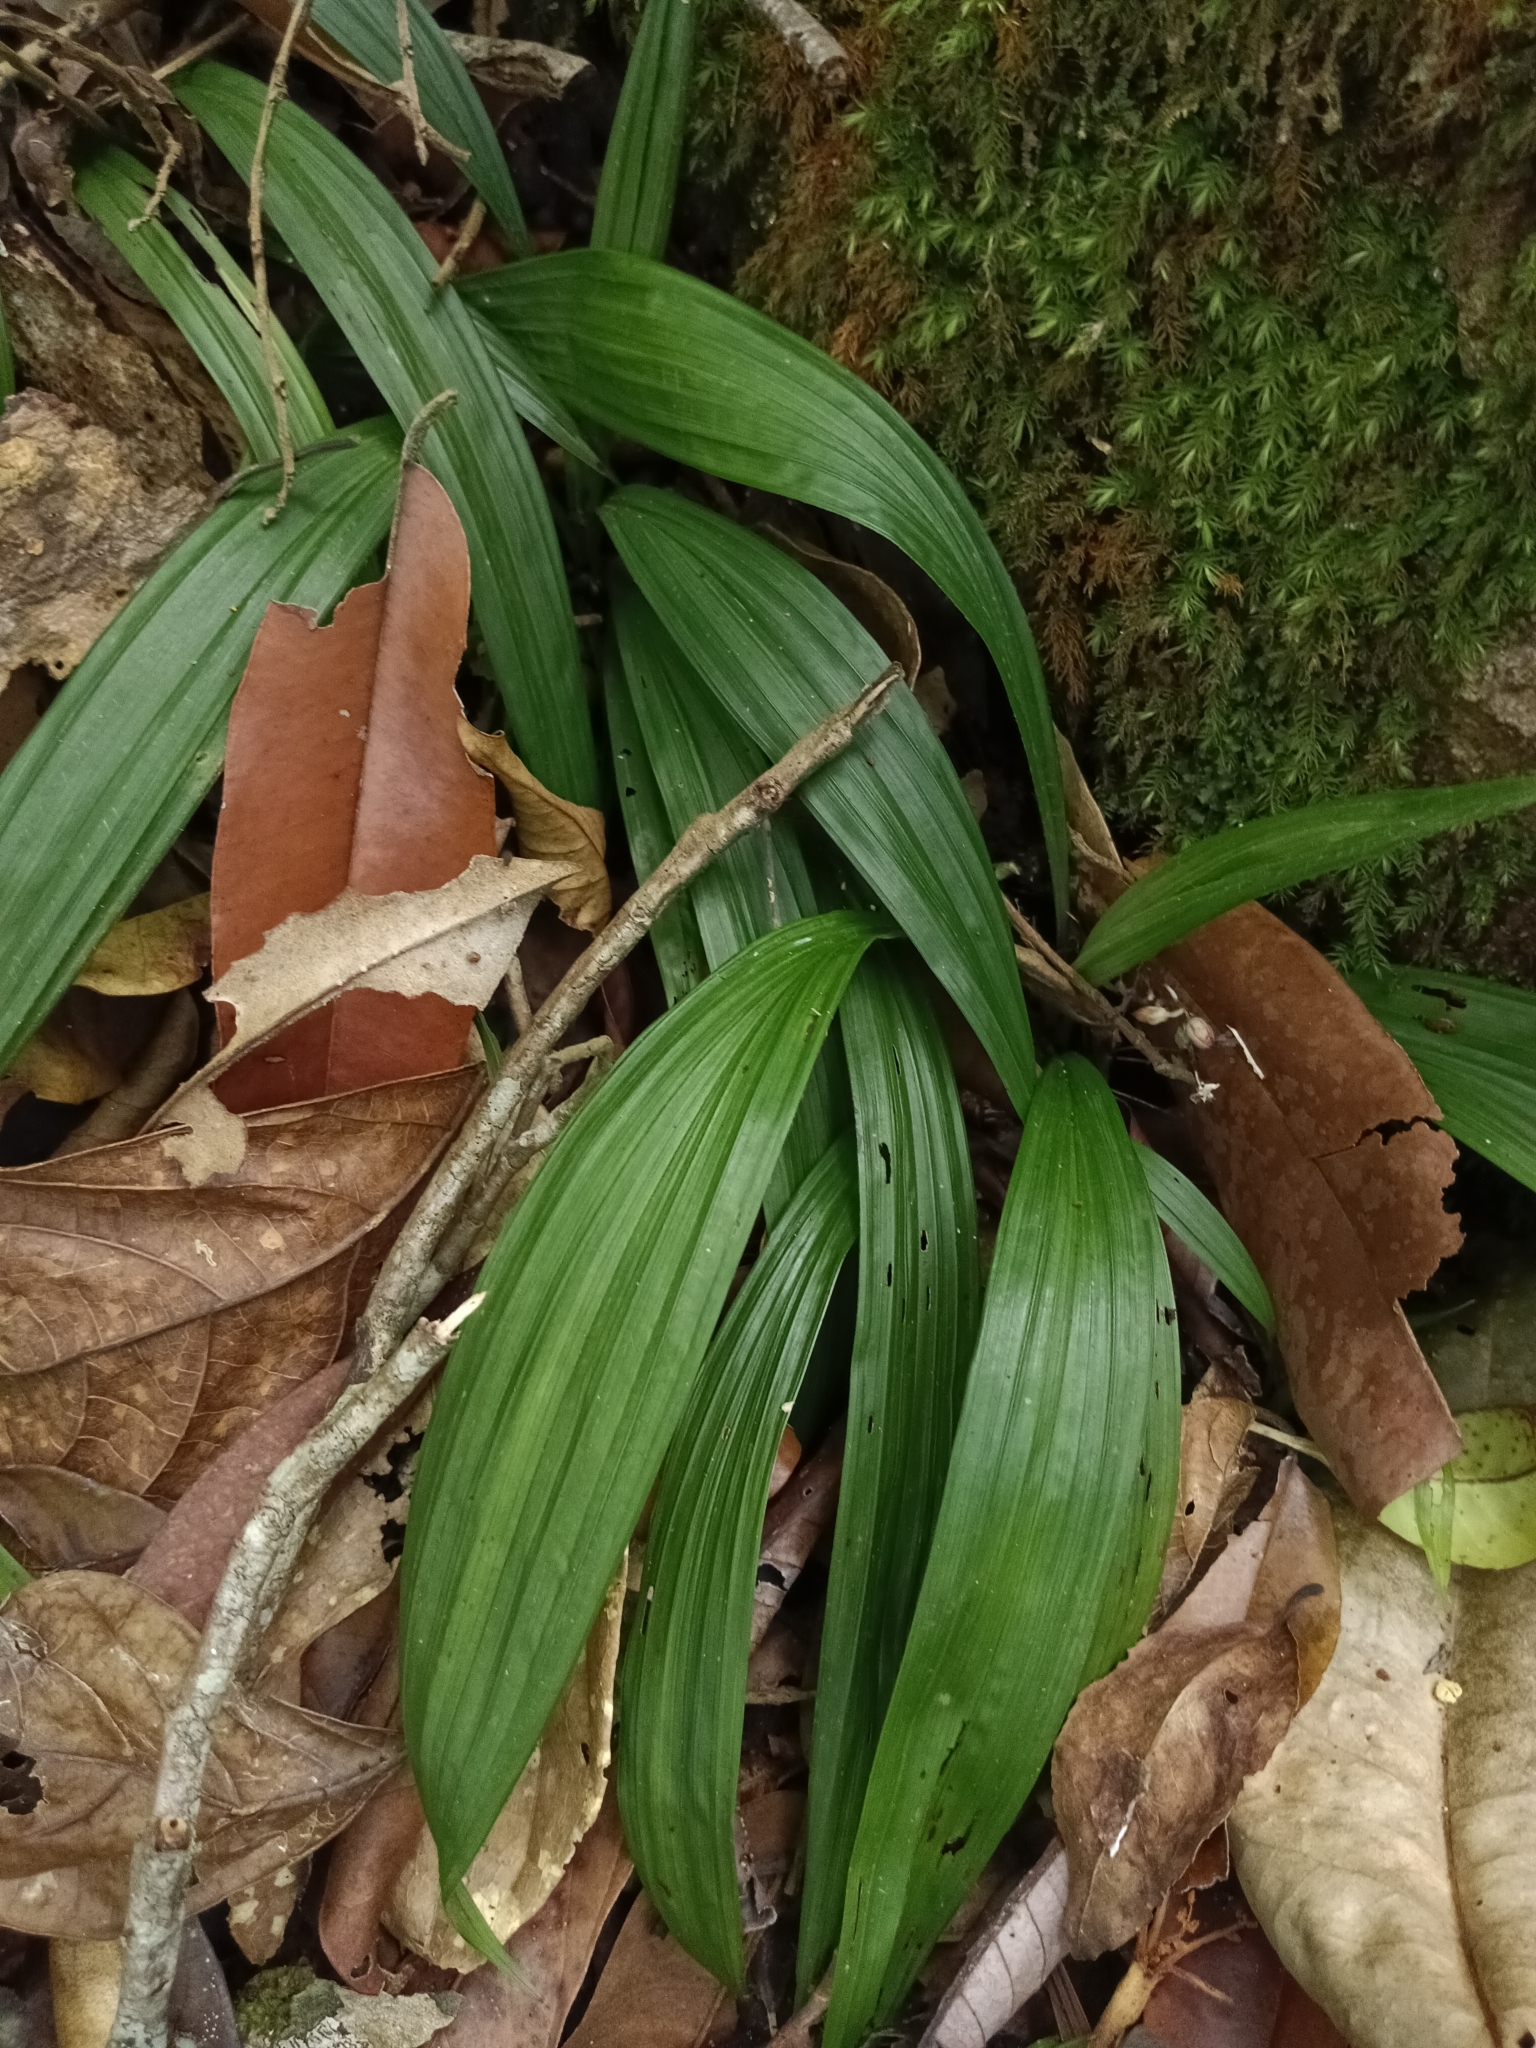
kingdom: Plantae
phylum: Tracheophyta
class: Liliopsida
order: Asparagales
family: Hypoxidaceae
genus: Curculigo
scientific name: Curculigo orchioides
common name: Golden eye-grass
